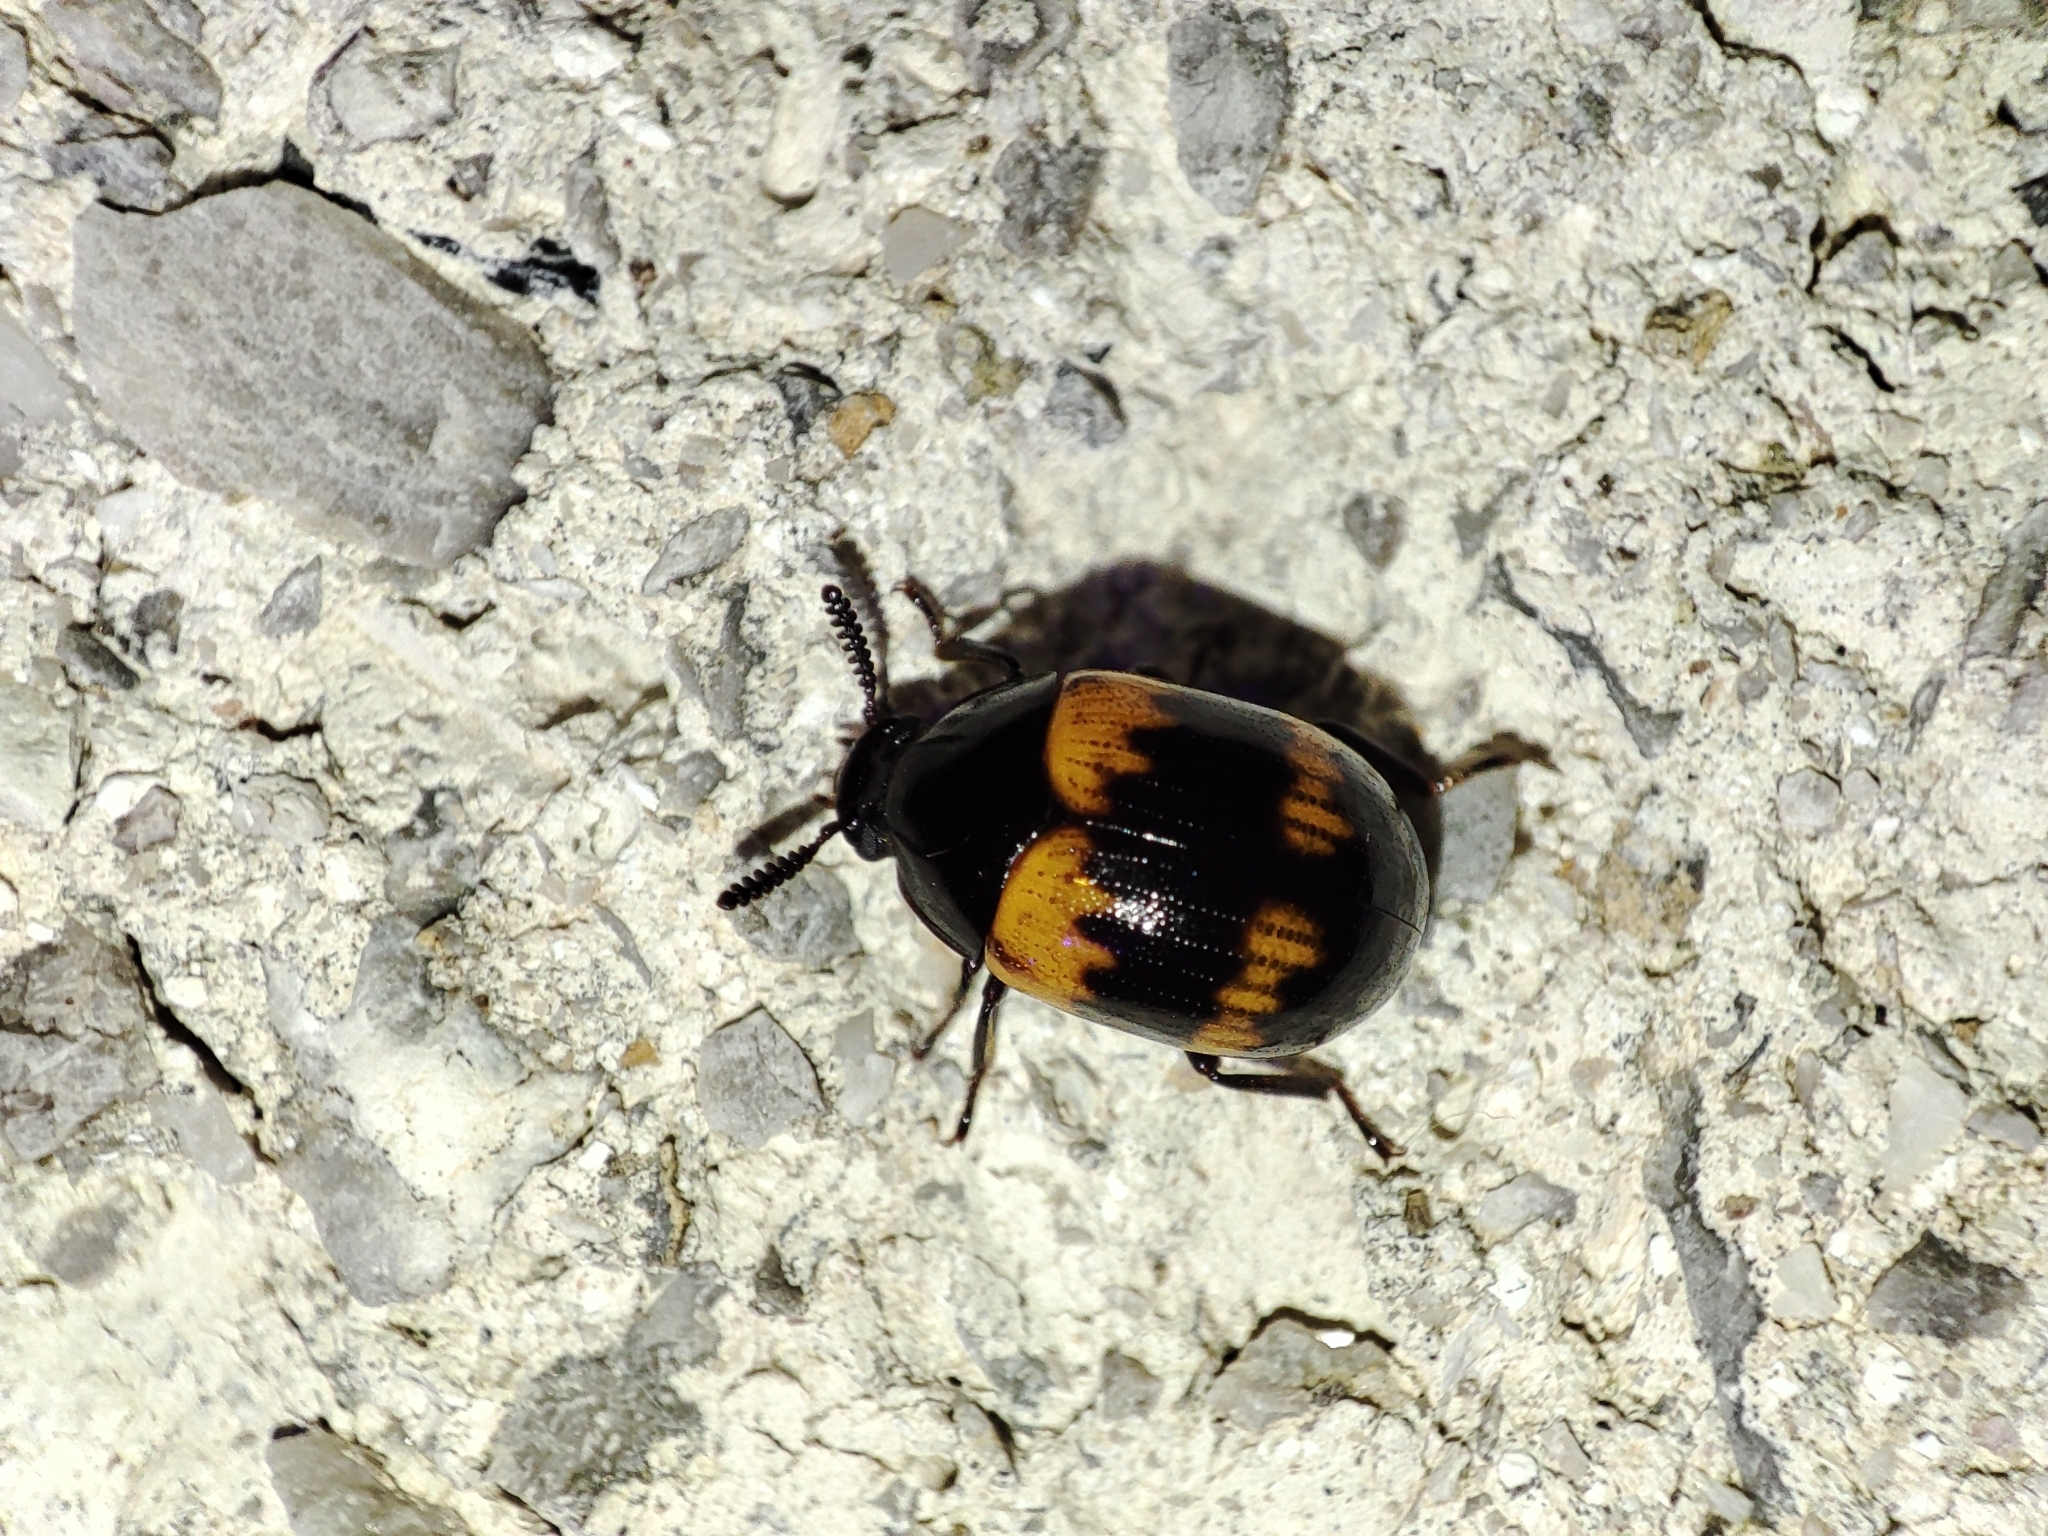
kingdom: Animalia
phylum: Arthropoda
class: Insecta
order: Coleoptera
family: Tenebrionidae
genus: Diaperis
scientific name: Diaperis boleti
